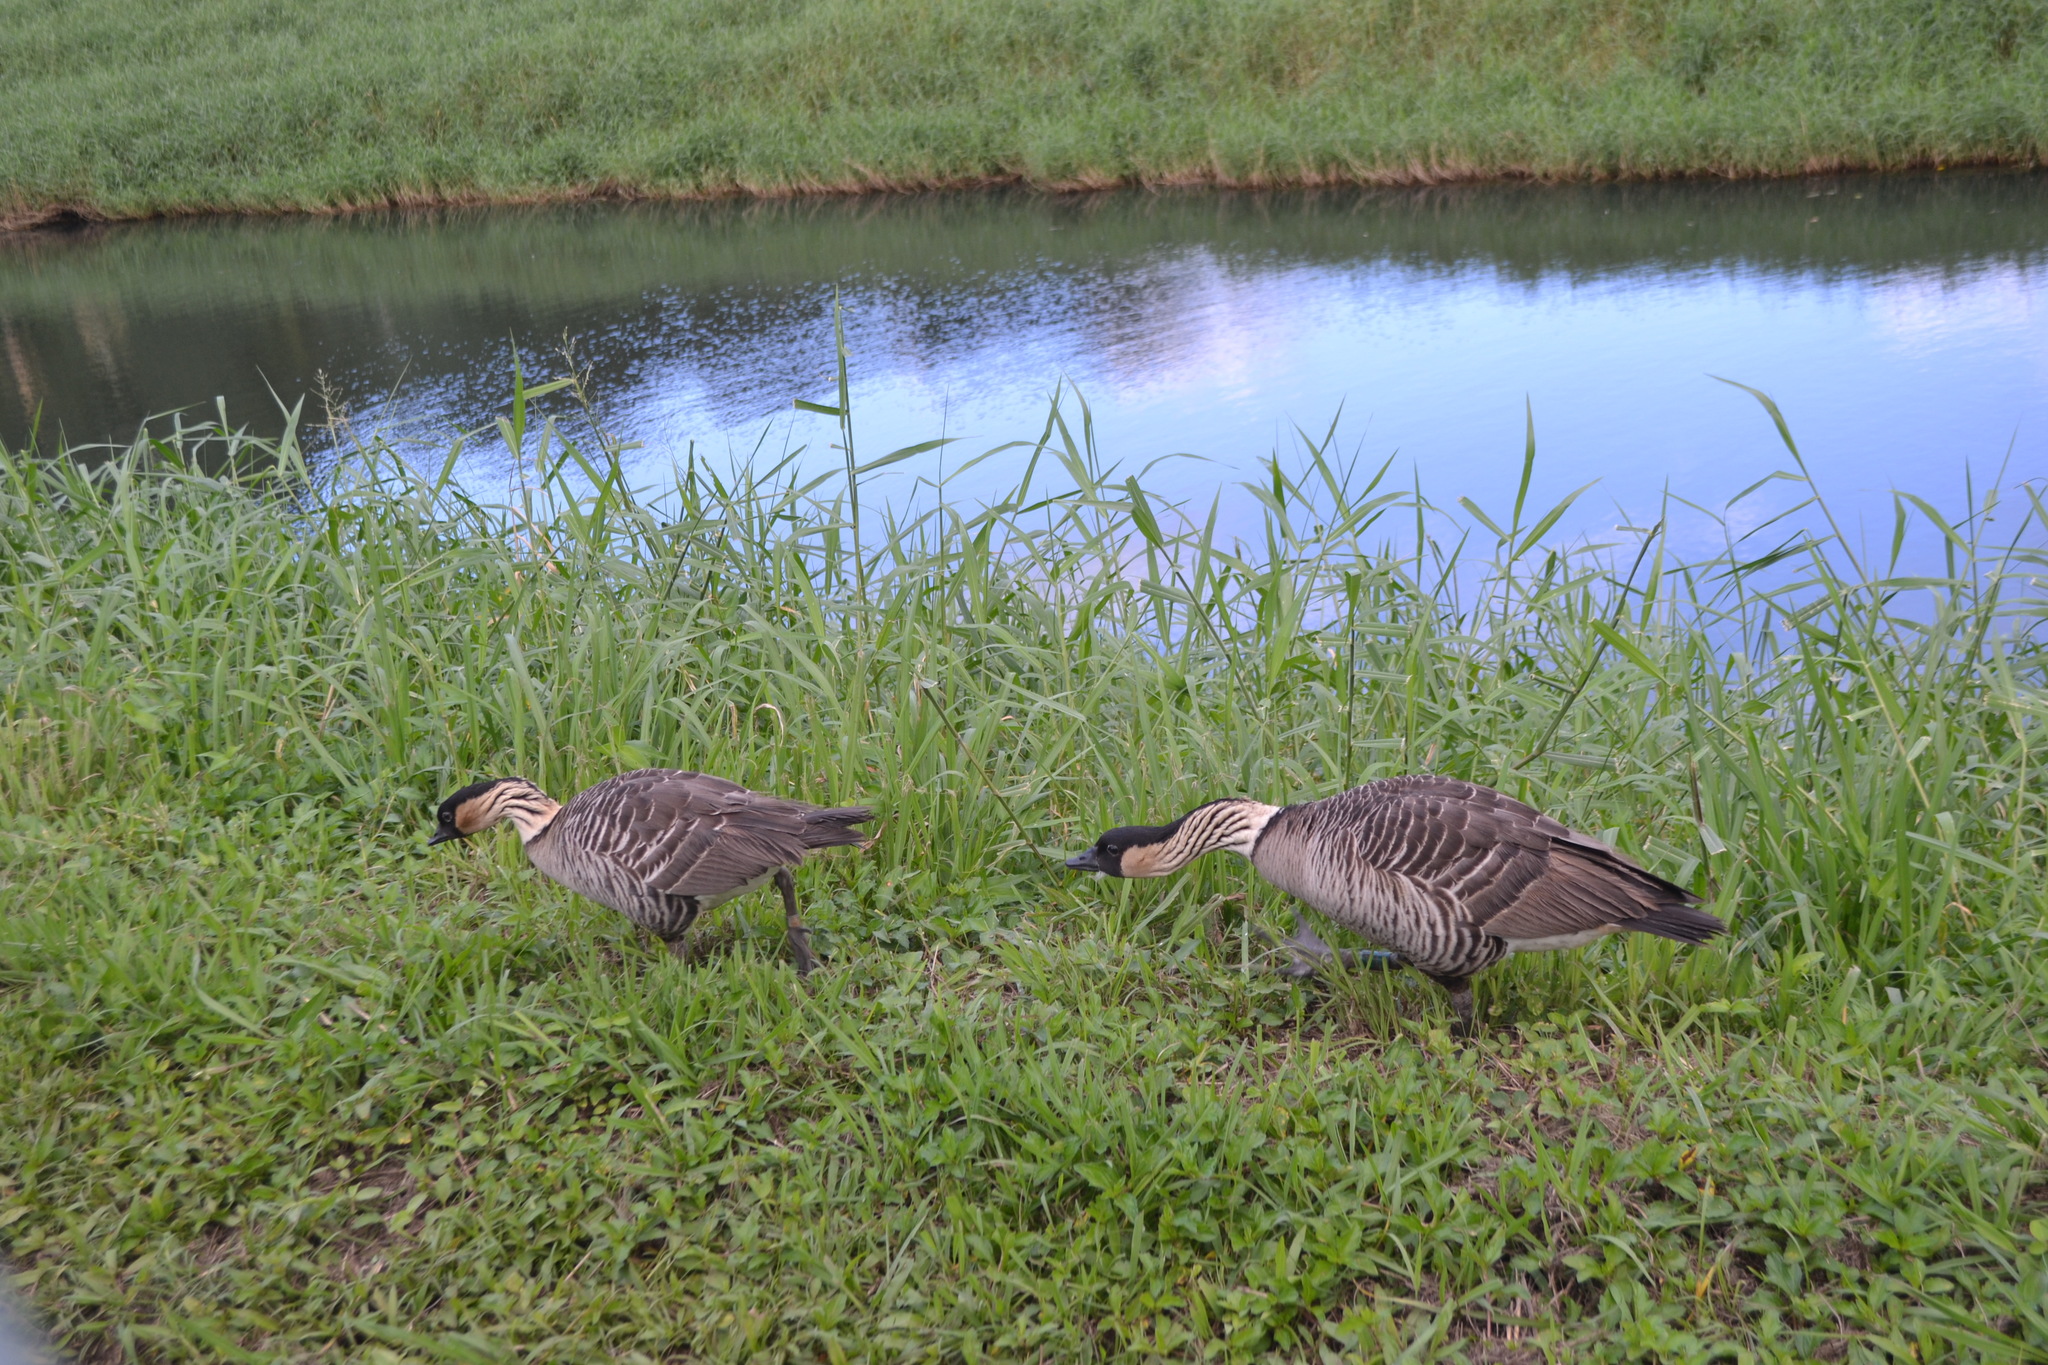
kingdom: Animalia
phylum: Chordata
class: Aves
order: Anseriformes
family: Anatidae
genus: Branta
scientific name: Branta sandvicensis
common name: Nene
